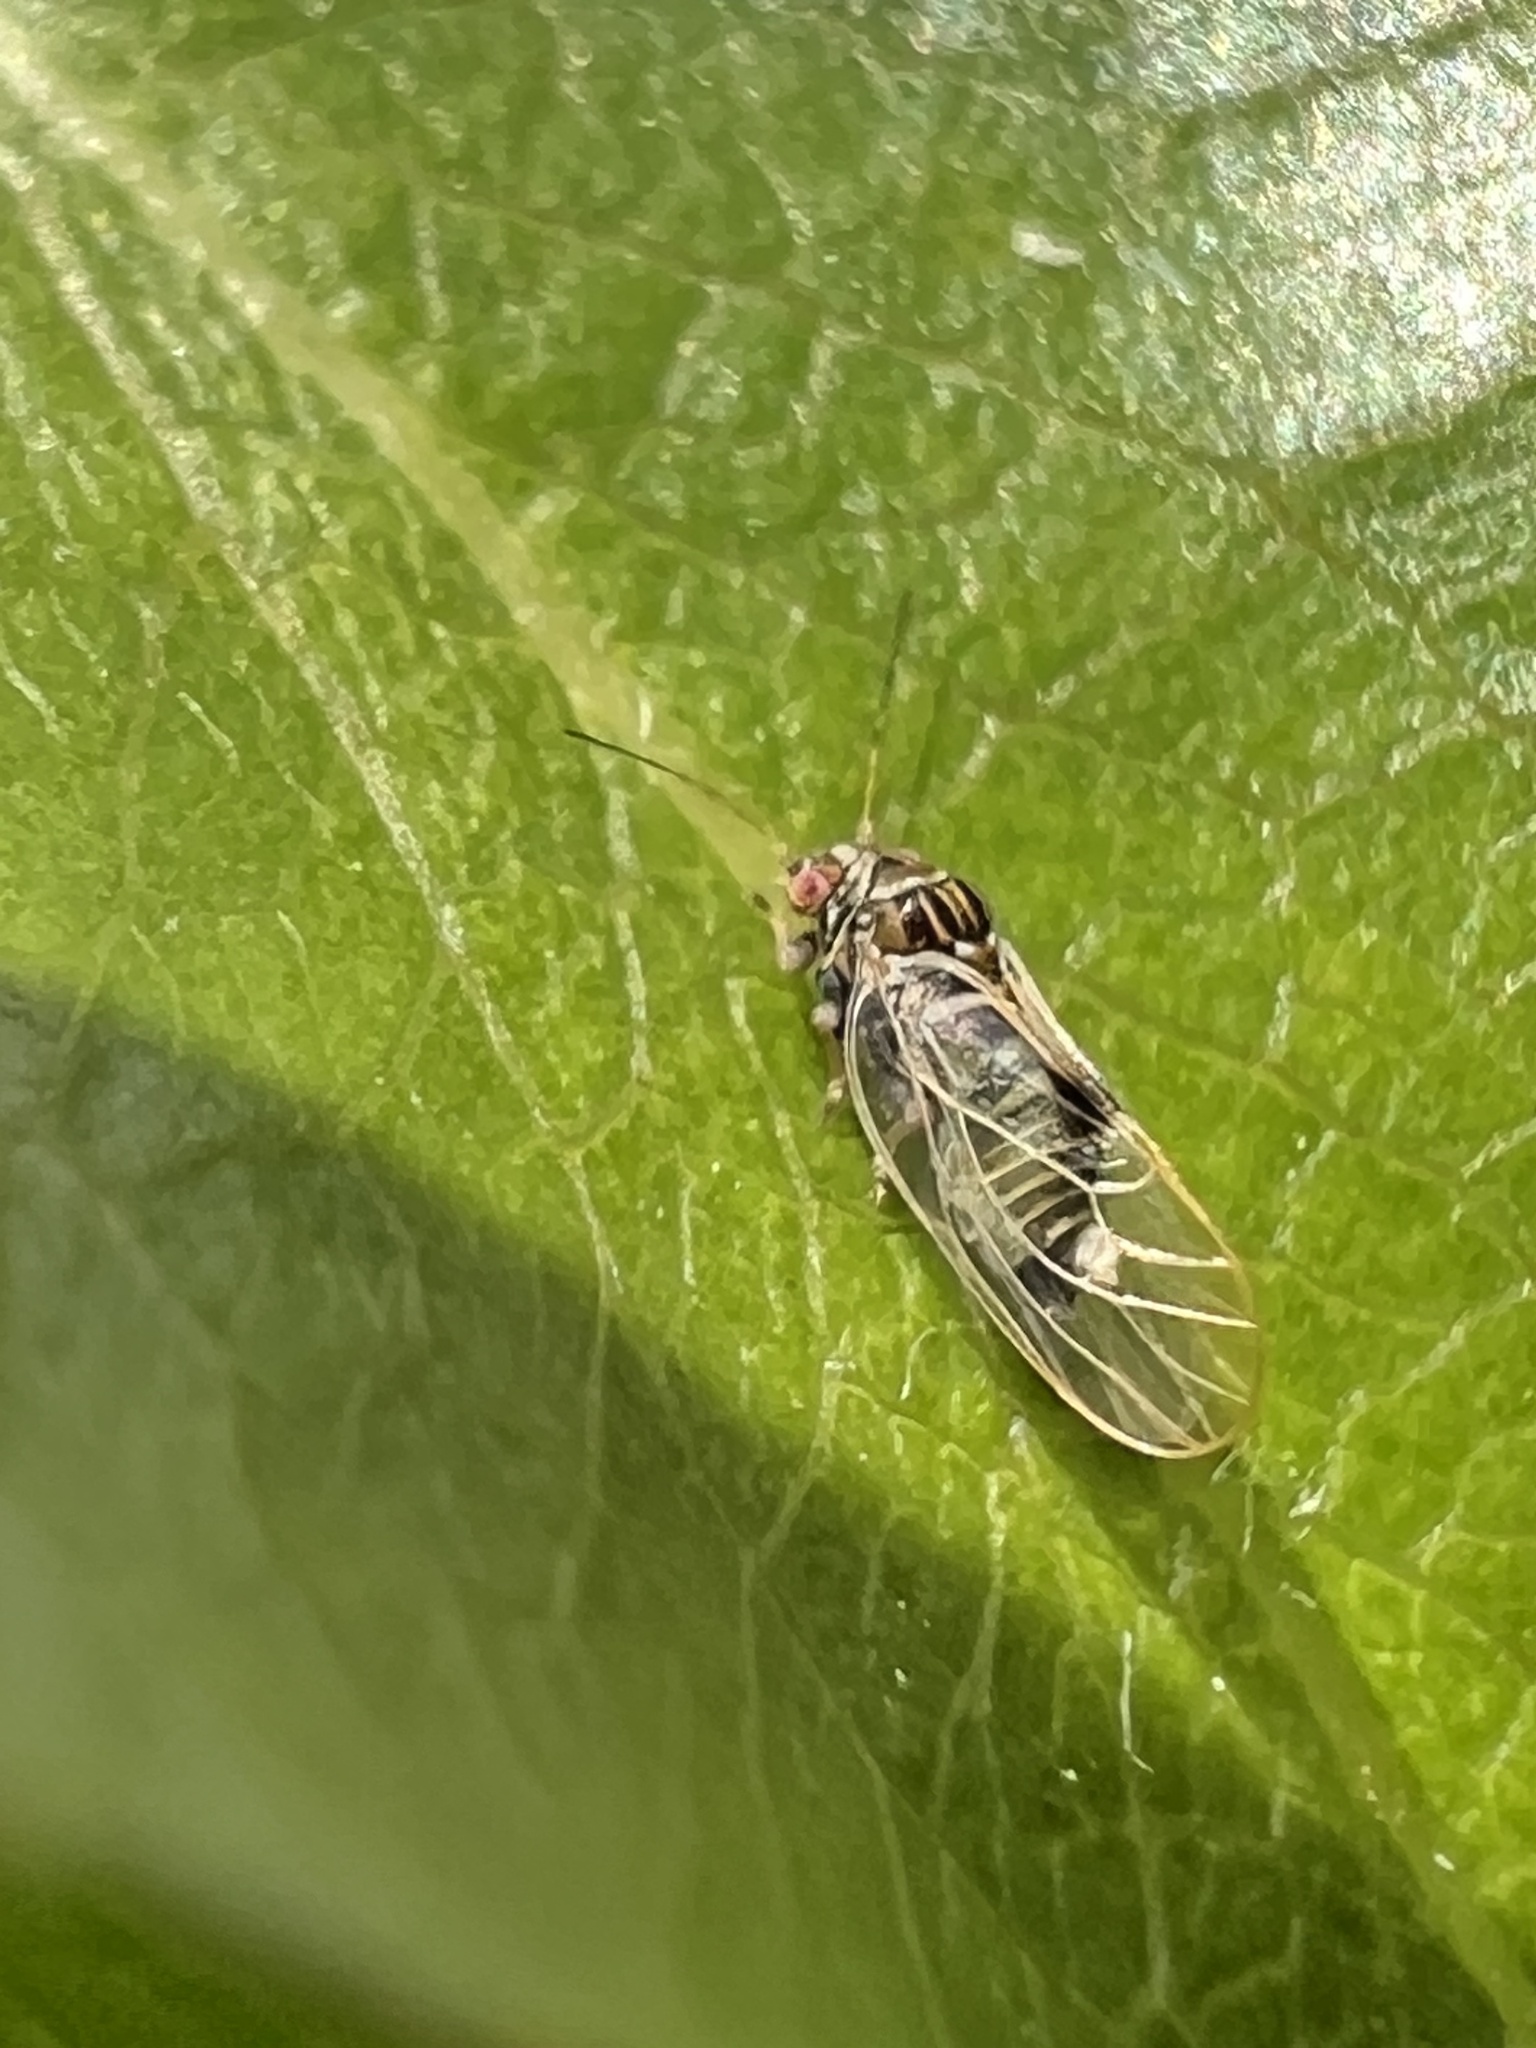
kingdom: Animalia
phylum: Arthropoda
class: Insecta
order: Hemiptera
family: Psyllidae
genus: Cacopsylla
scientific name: Cacopsylla pyricola
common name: Pear psylla
